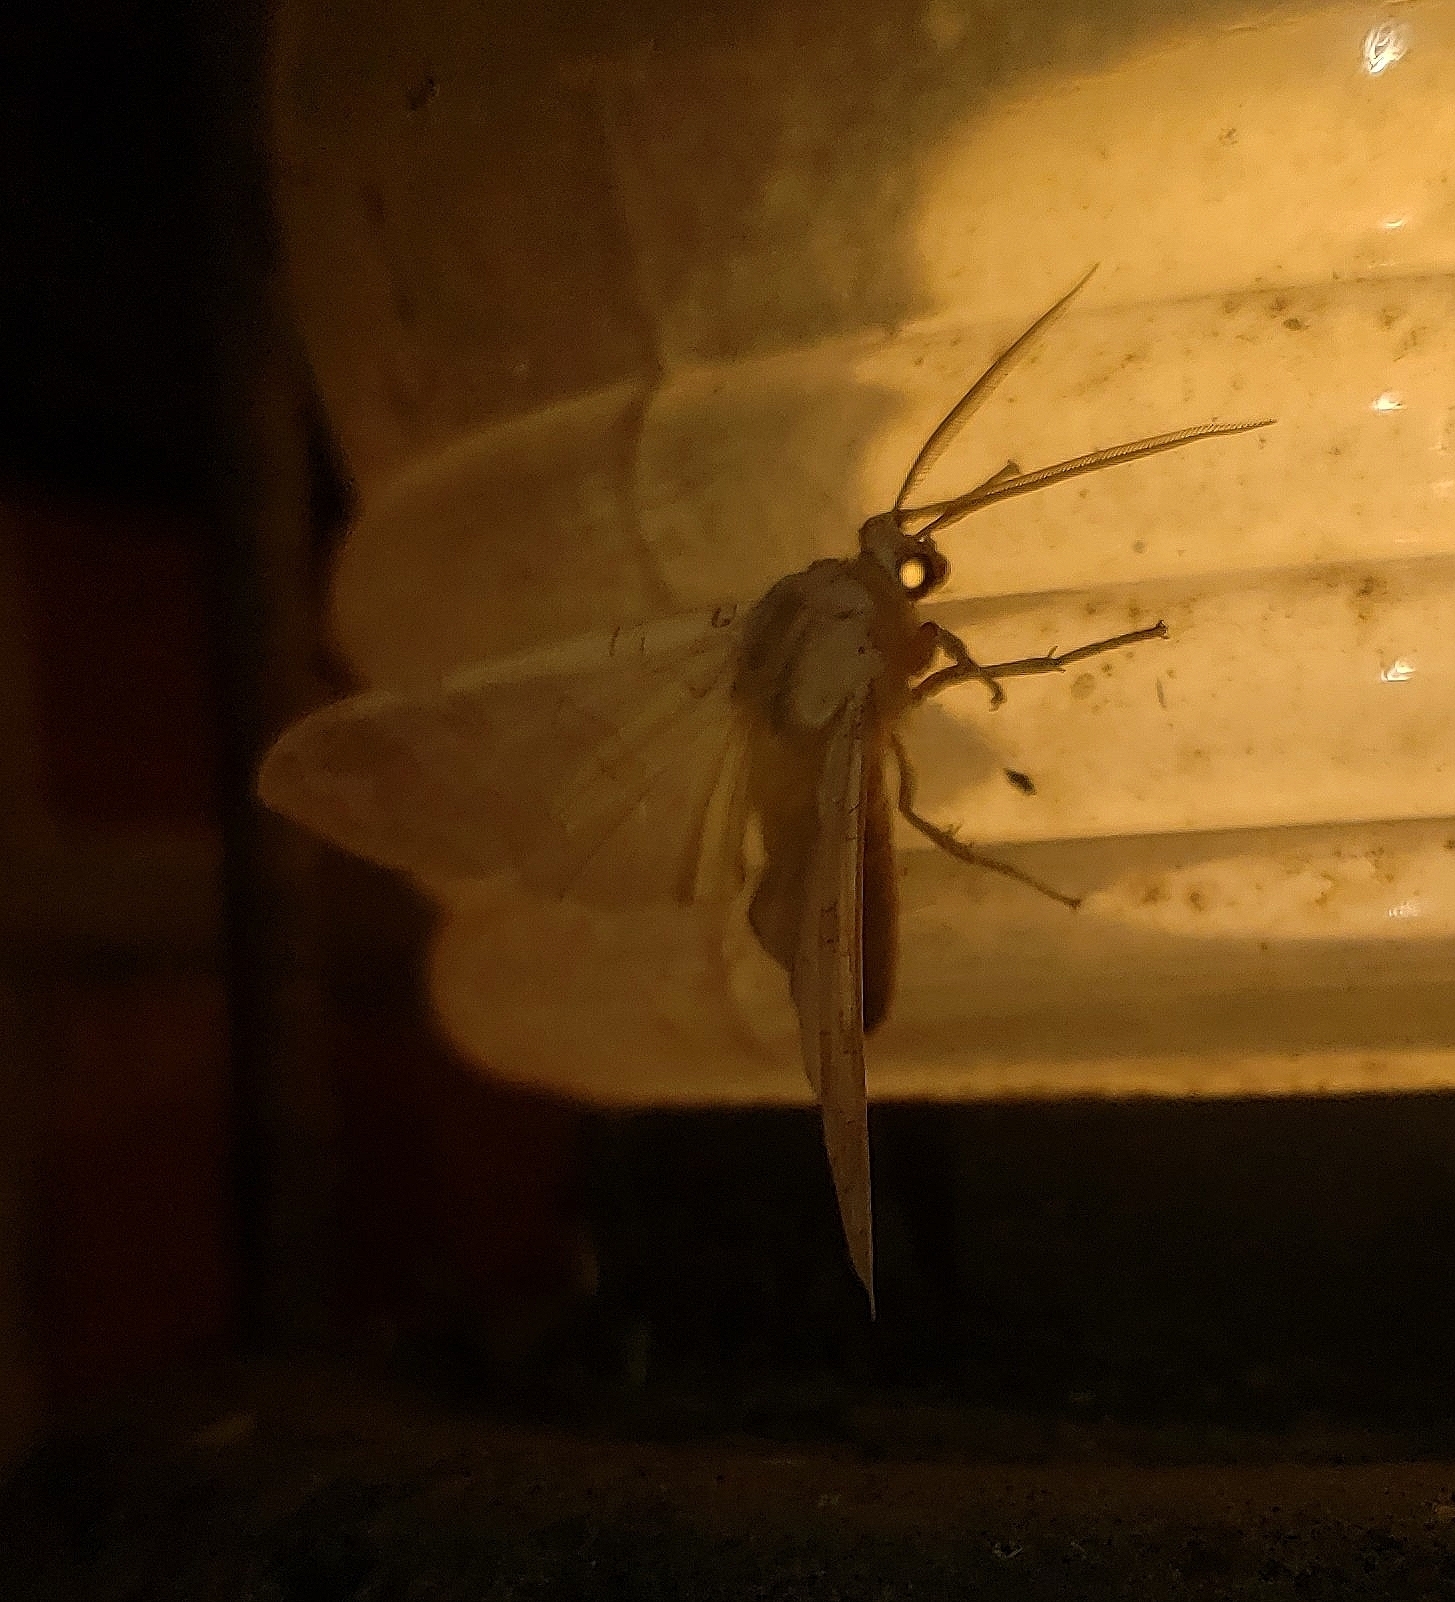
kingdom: Animalia
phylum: Arthropoda
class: Insecta
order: Lepidoptera
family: Erebidae
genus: Halysidota
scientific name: Halysidota
